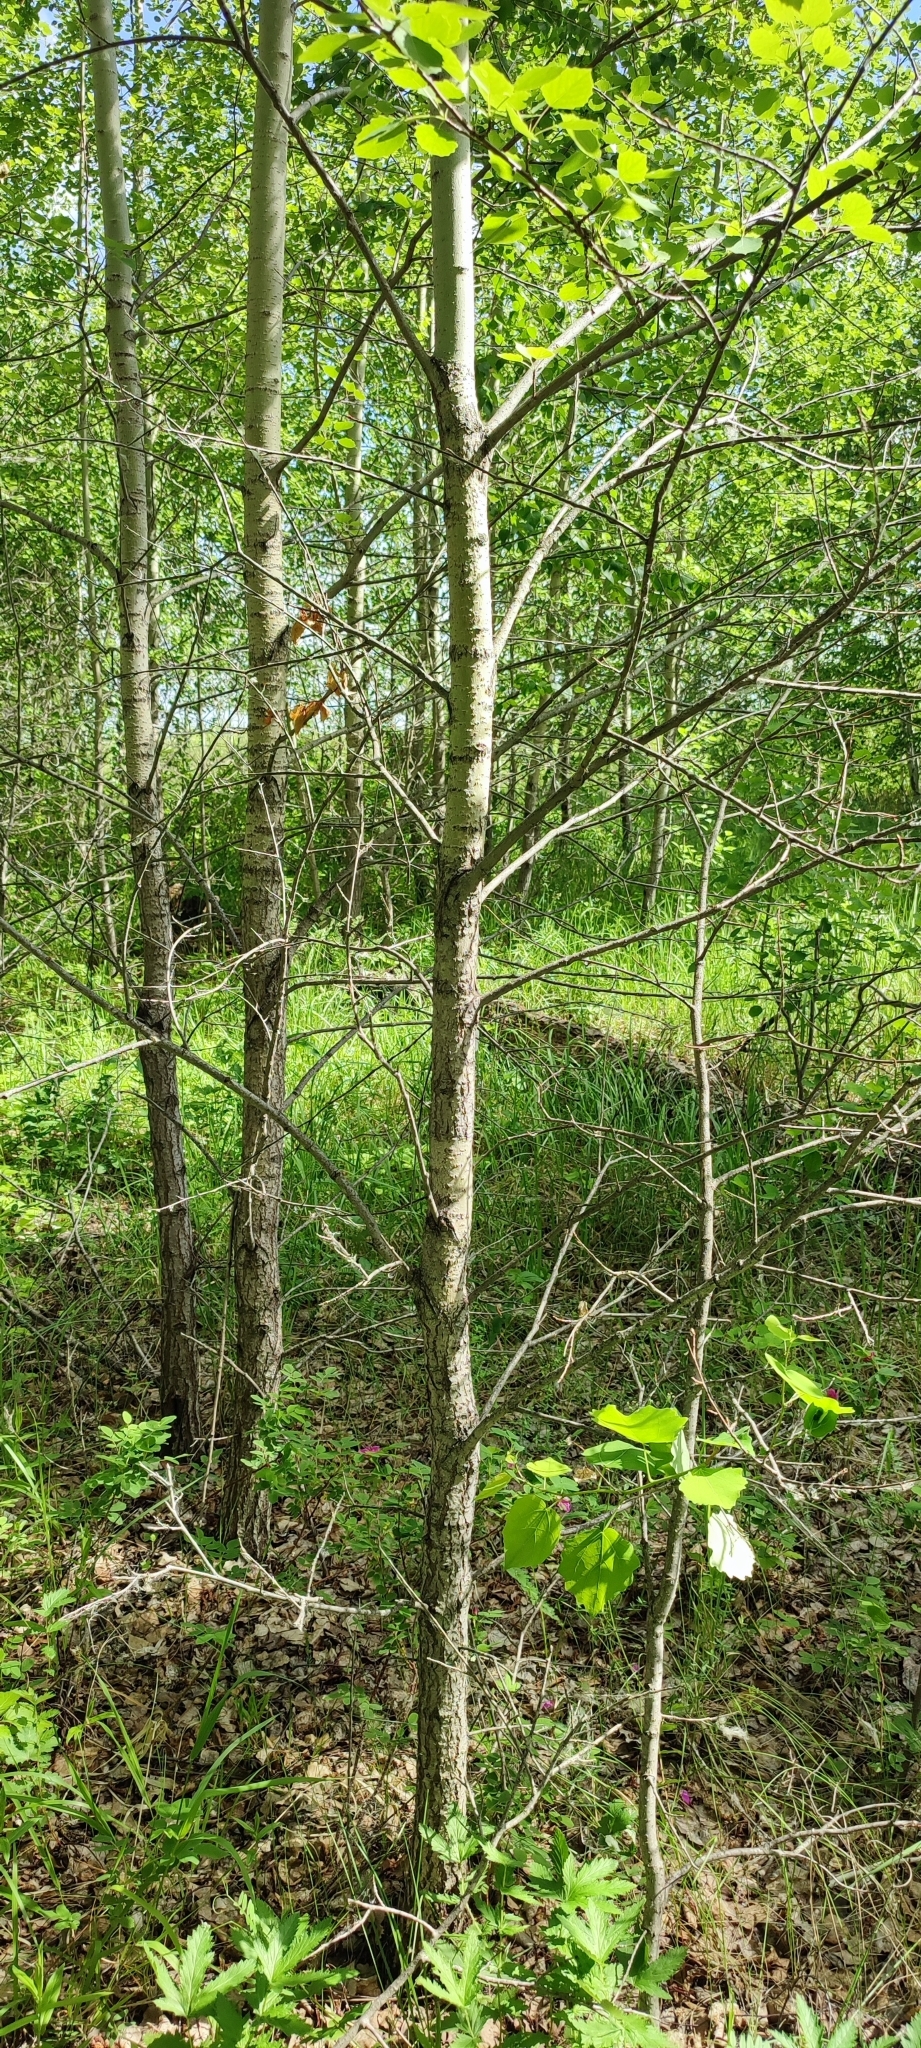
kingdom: Plantae
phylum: Tracheophyta
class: Magnoliopsida
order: Malpighiales
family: Salicaceae
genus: Populus
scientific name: Populus tremula
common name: European aspen
